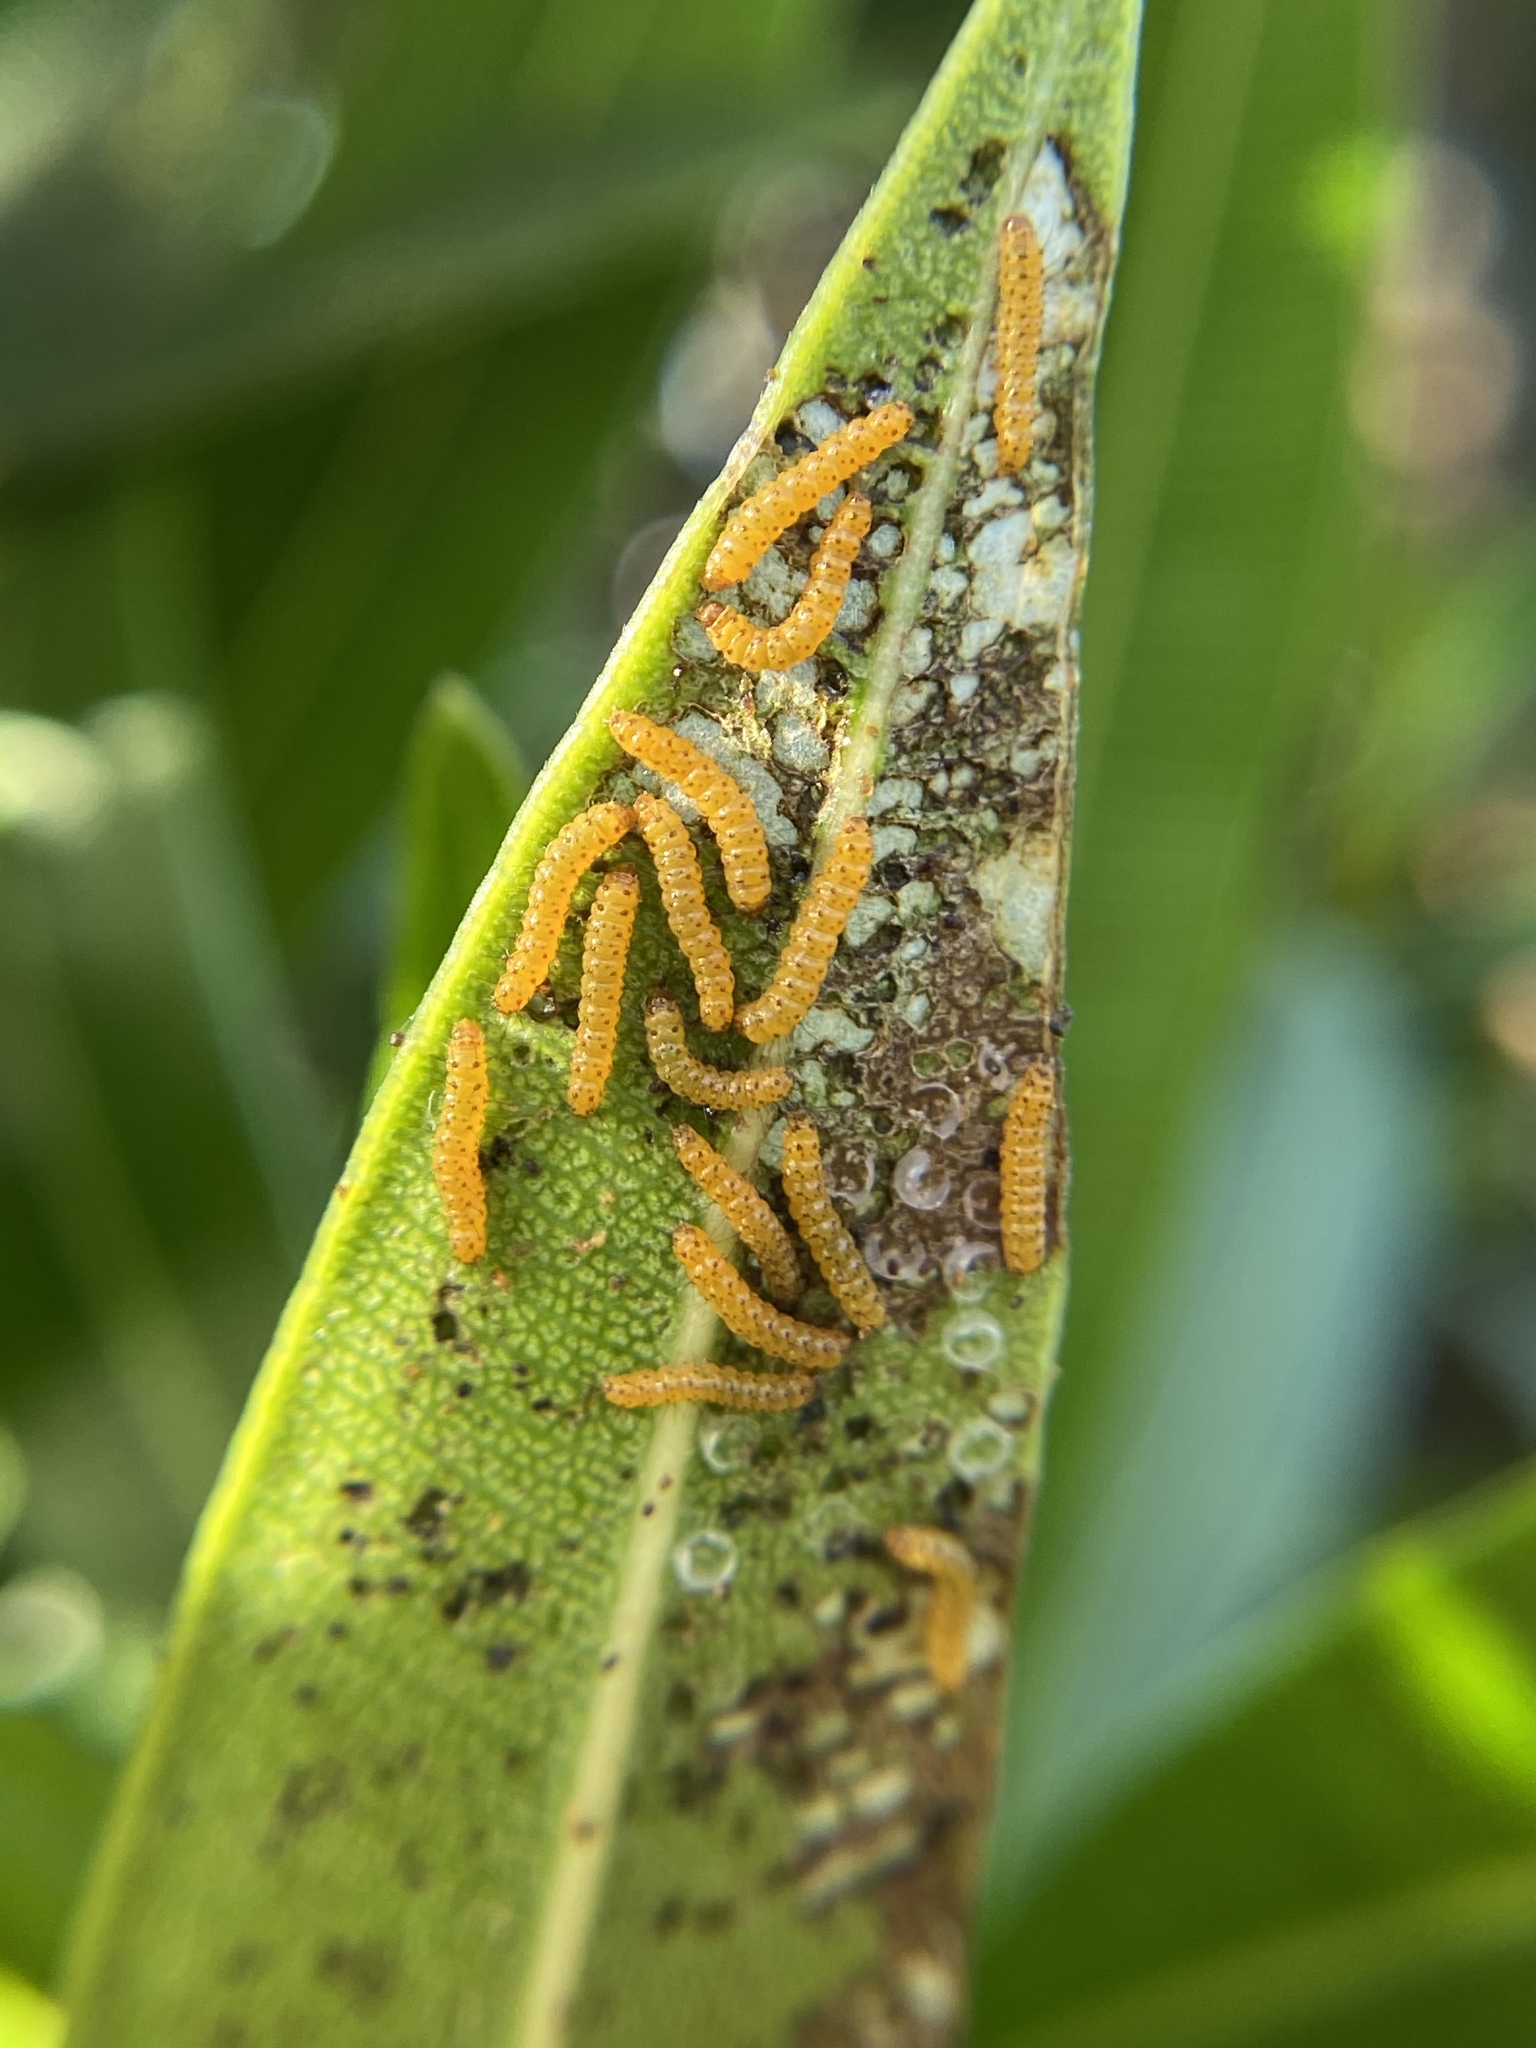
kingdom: Animalia
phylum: Arthropoda
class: Insecta
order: Lepidoptera
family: Erebidae
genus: Syntomeida
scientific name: Syntomeida epilais
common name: Polka-dot wasp moth
